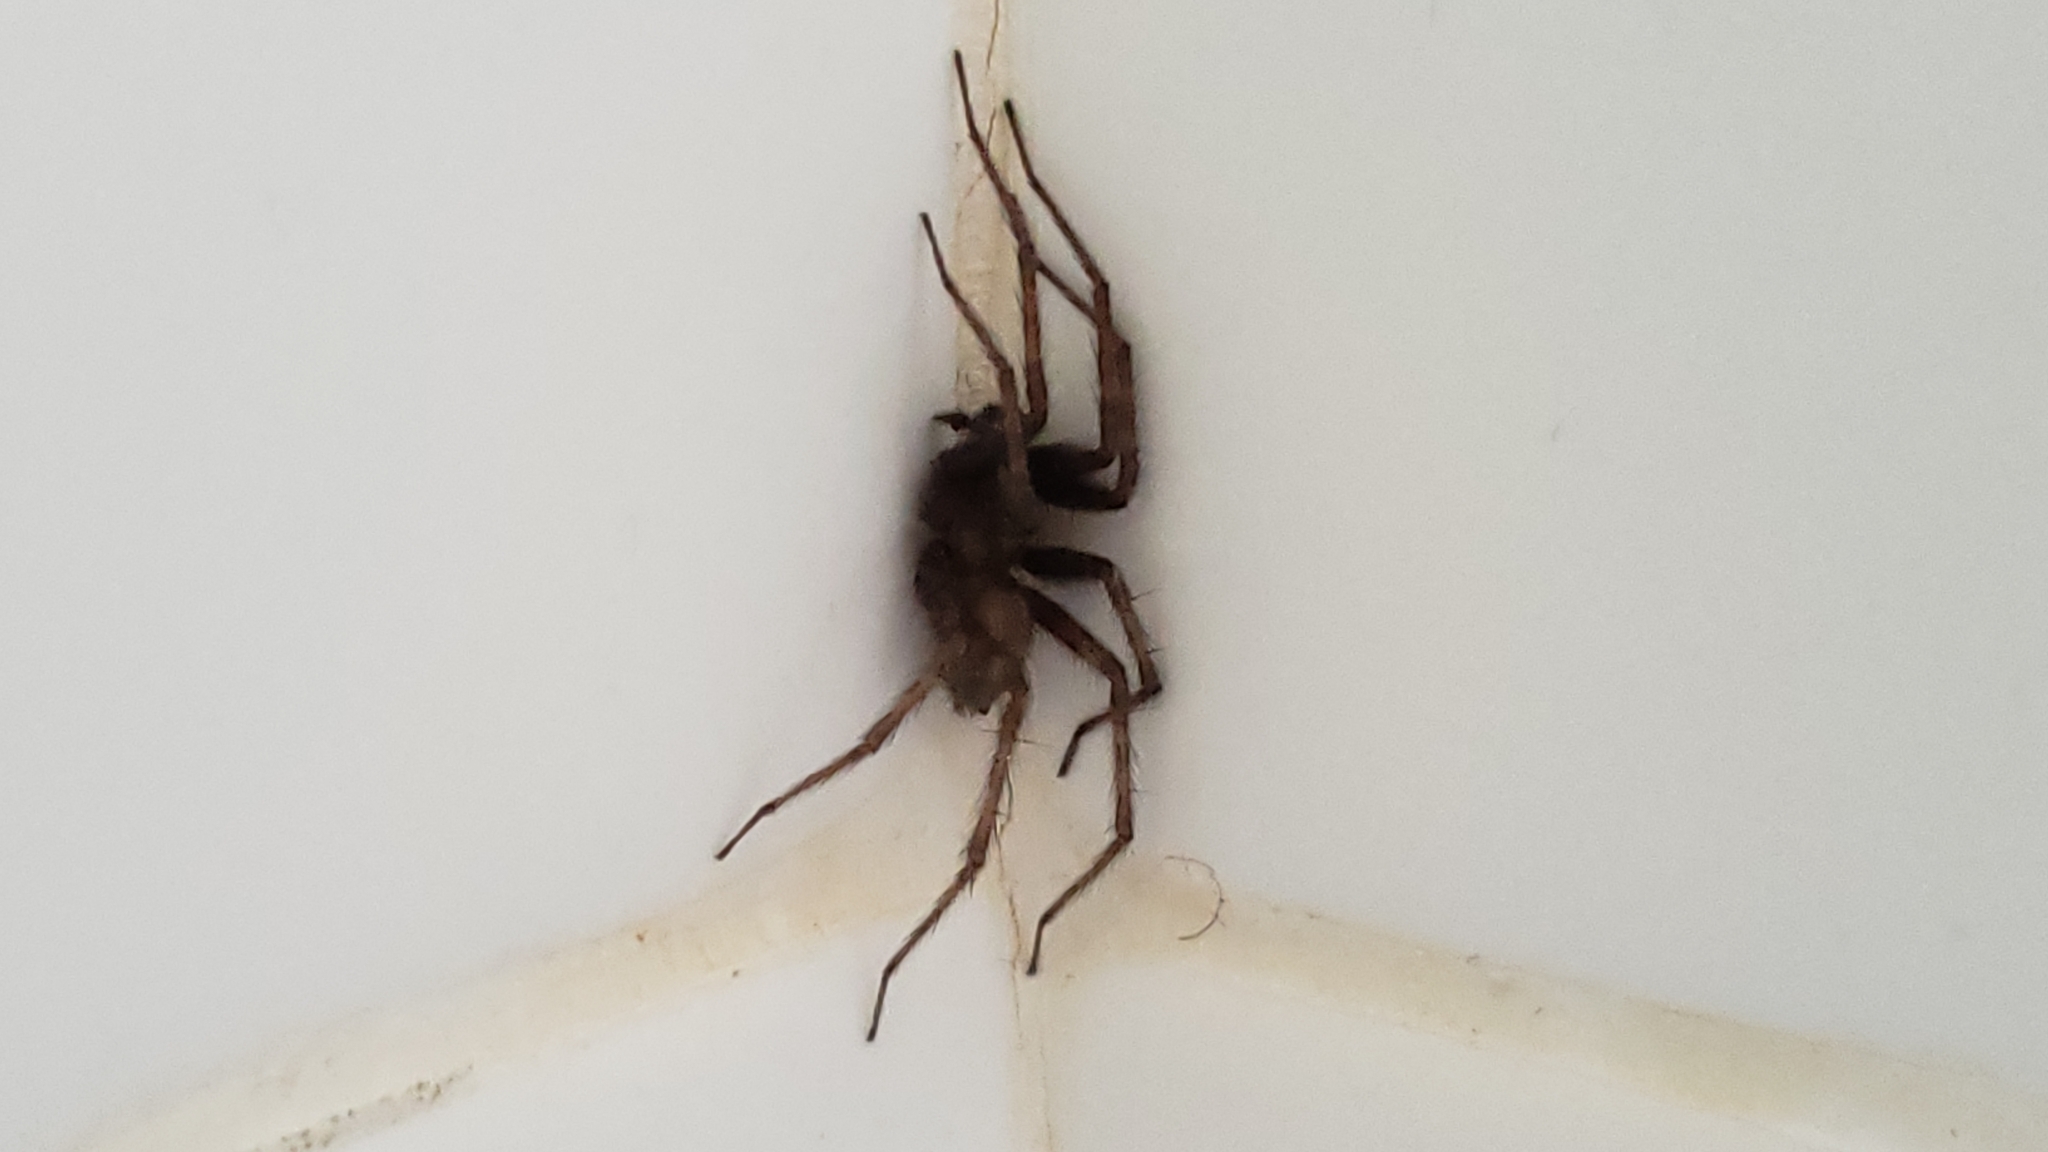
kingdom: Animalia
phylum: Arthropoda
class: Arachnida
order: Araneae
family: Agelenidae
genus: Tegenaria
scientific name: Tegenaria domestica
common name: Barn funnel weaver
